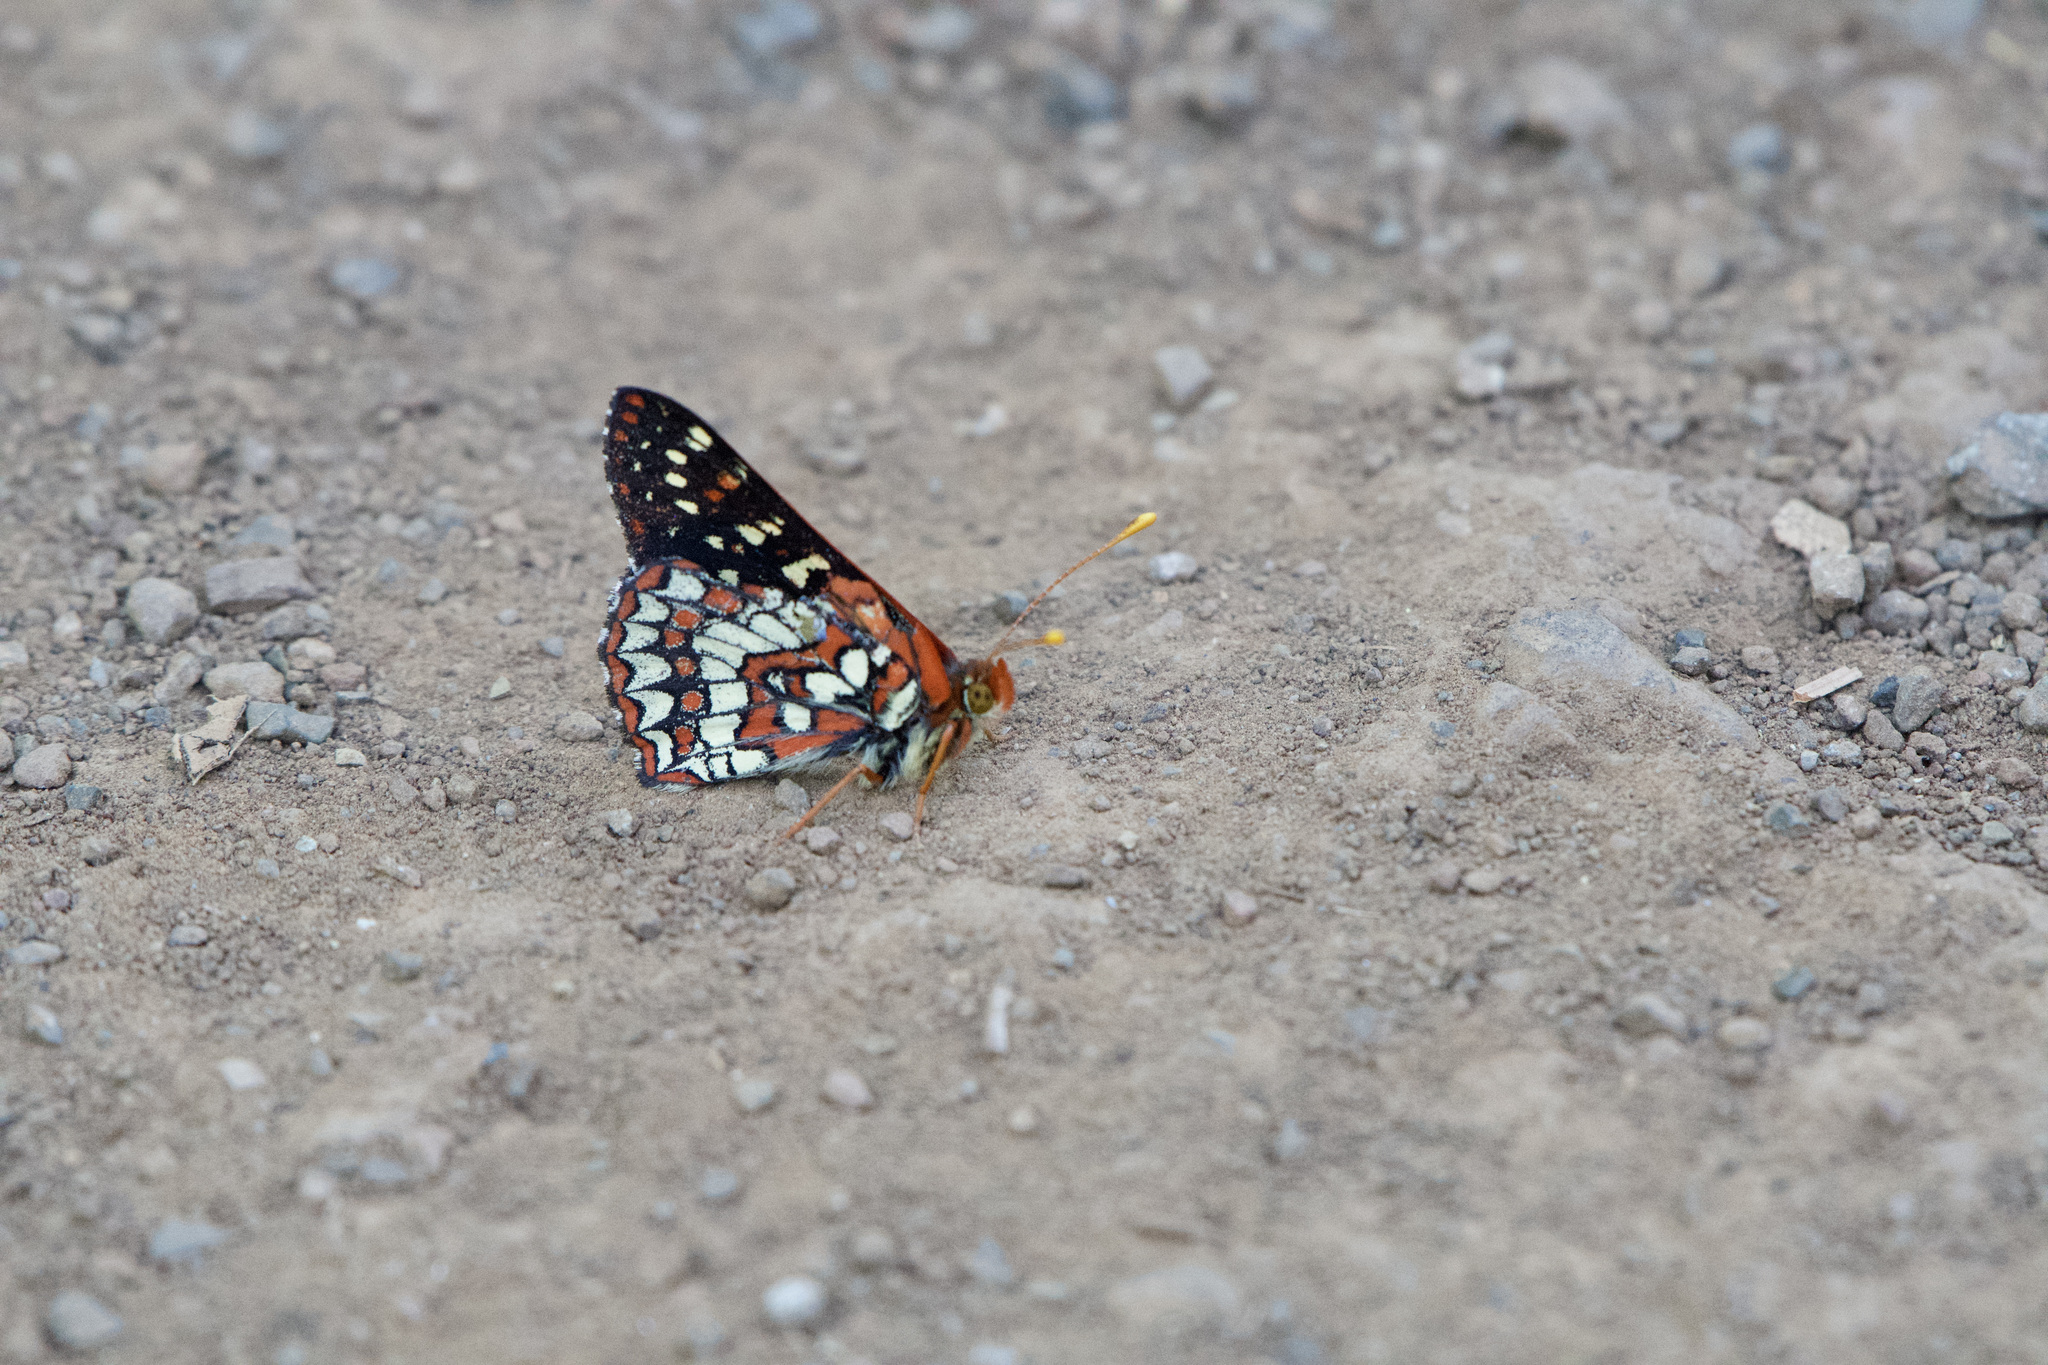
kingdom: Animalia
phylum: Arthropoda
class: Insecta
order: Lepidoptera
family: Nymphalidae
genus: Occidryas
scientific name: Occidryas chalcedona
